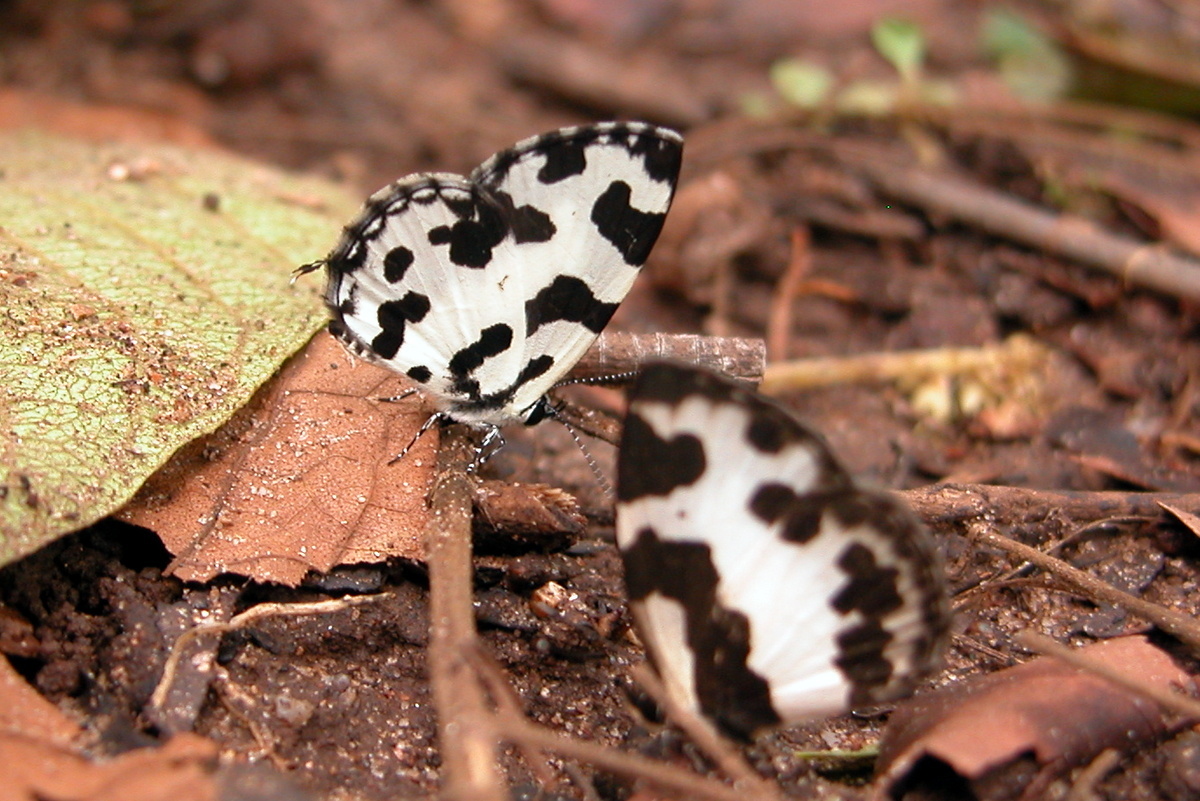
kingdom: Animalia
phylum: Arthropoda
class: Insecta
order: Lepidoptera
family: Lycaenidae
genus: Caleta
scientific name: Caleta decidia
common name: Angled pierrot
